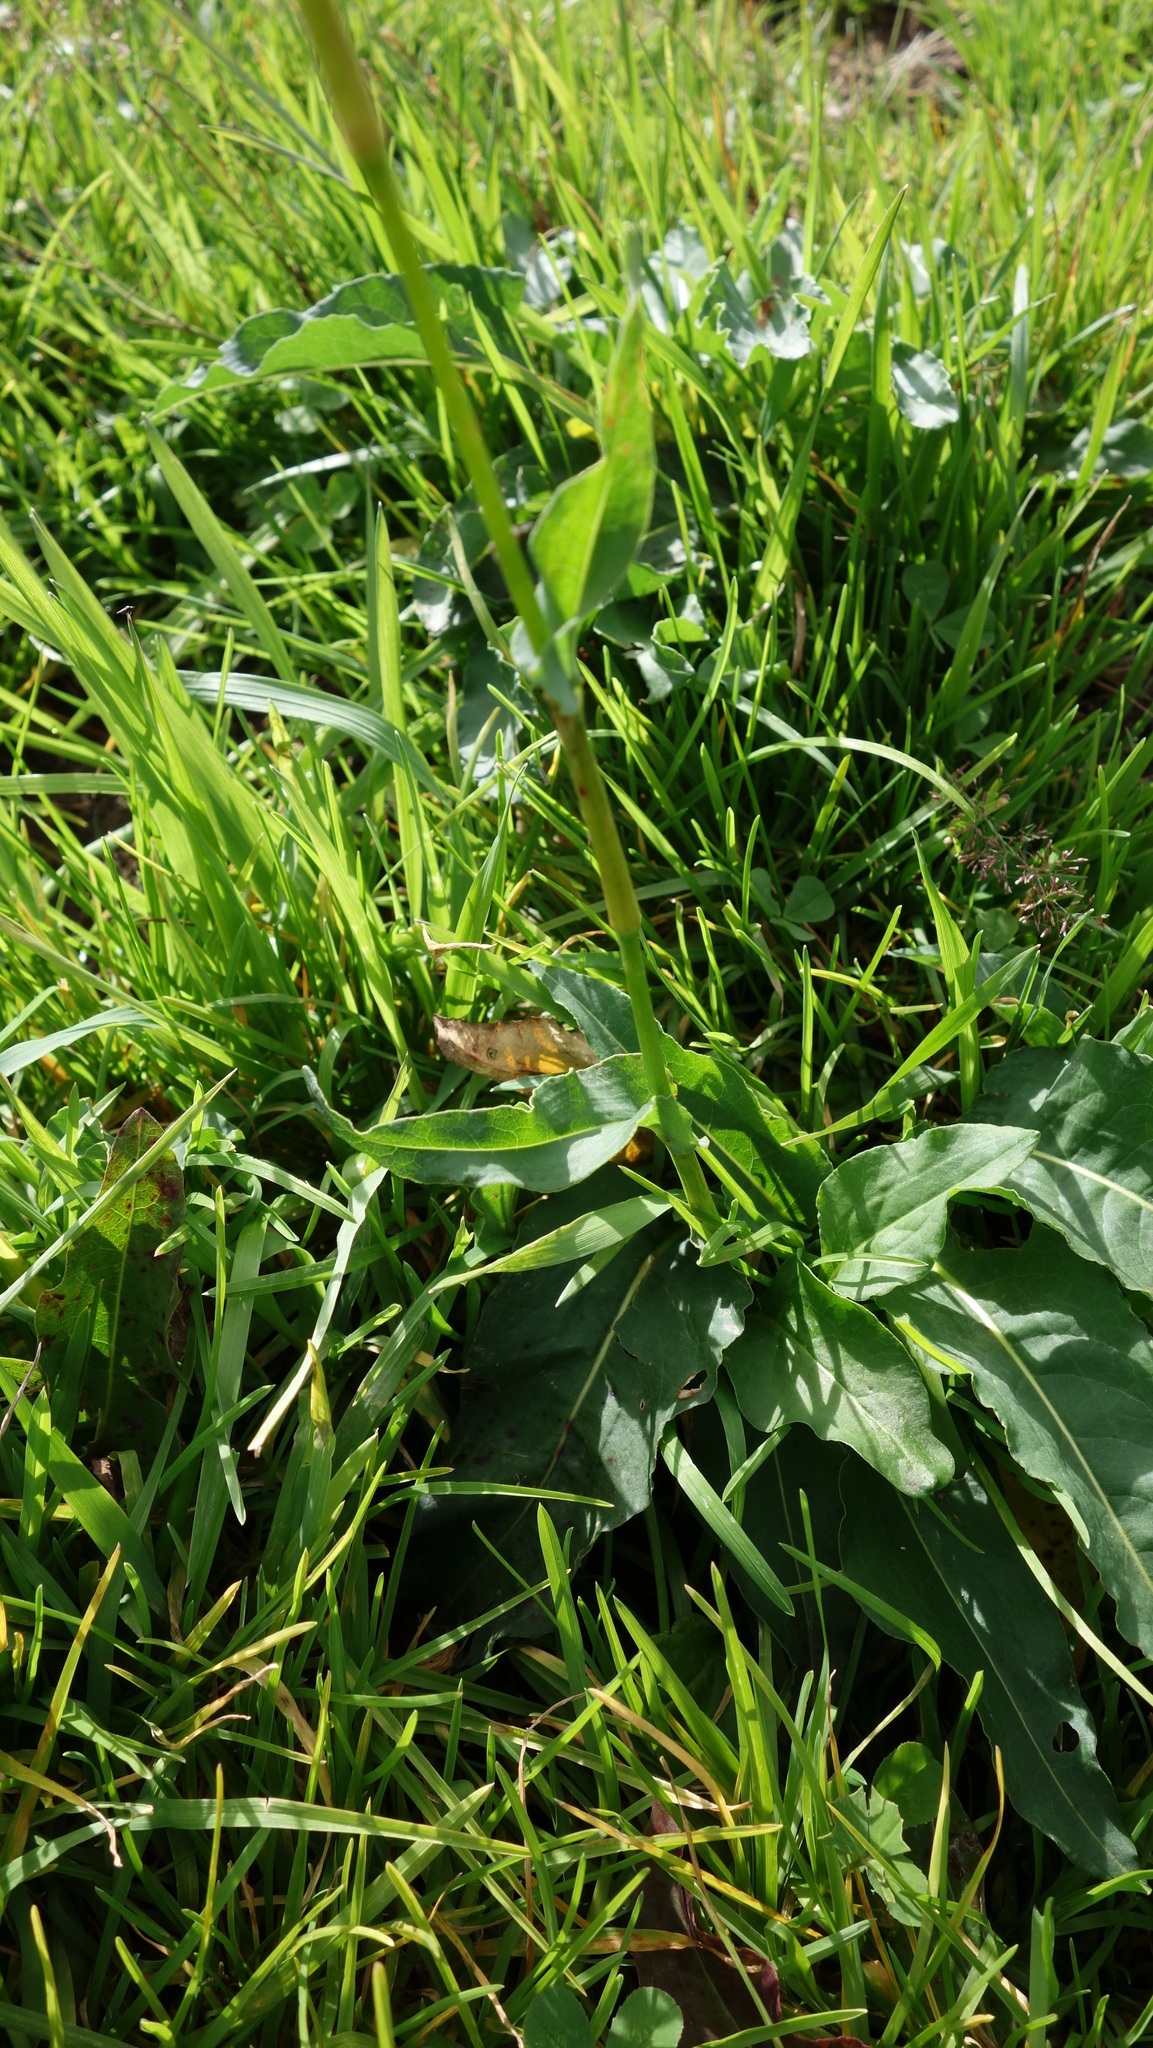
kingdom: Plantae
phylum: Tracheophyta
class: Magnoliopsida
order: Caryophyllales
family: Polygonaceae
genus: Bistorta
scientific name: Bistorta officinalis
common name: Common bistort
